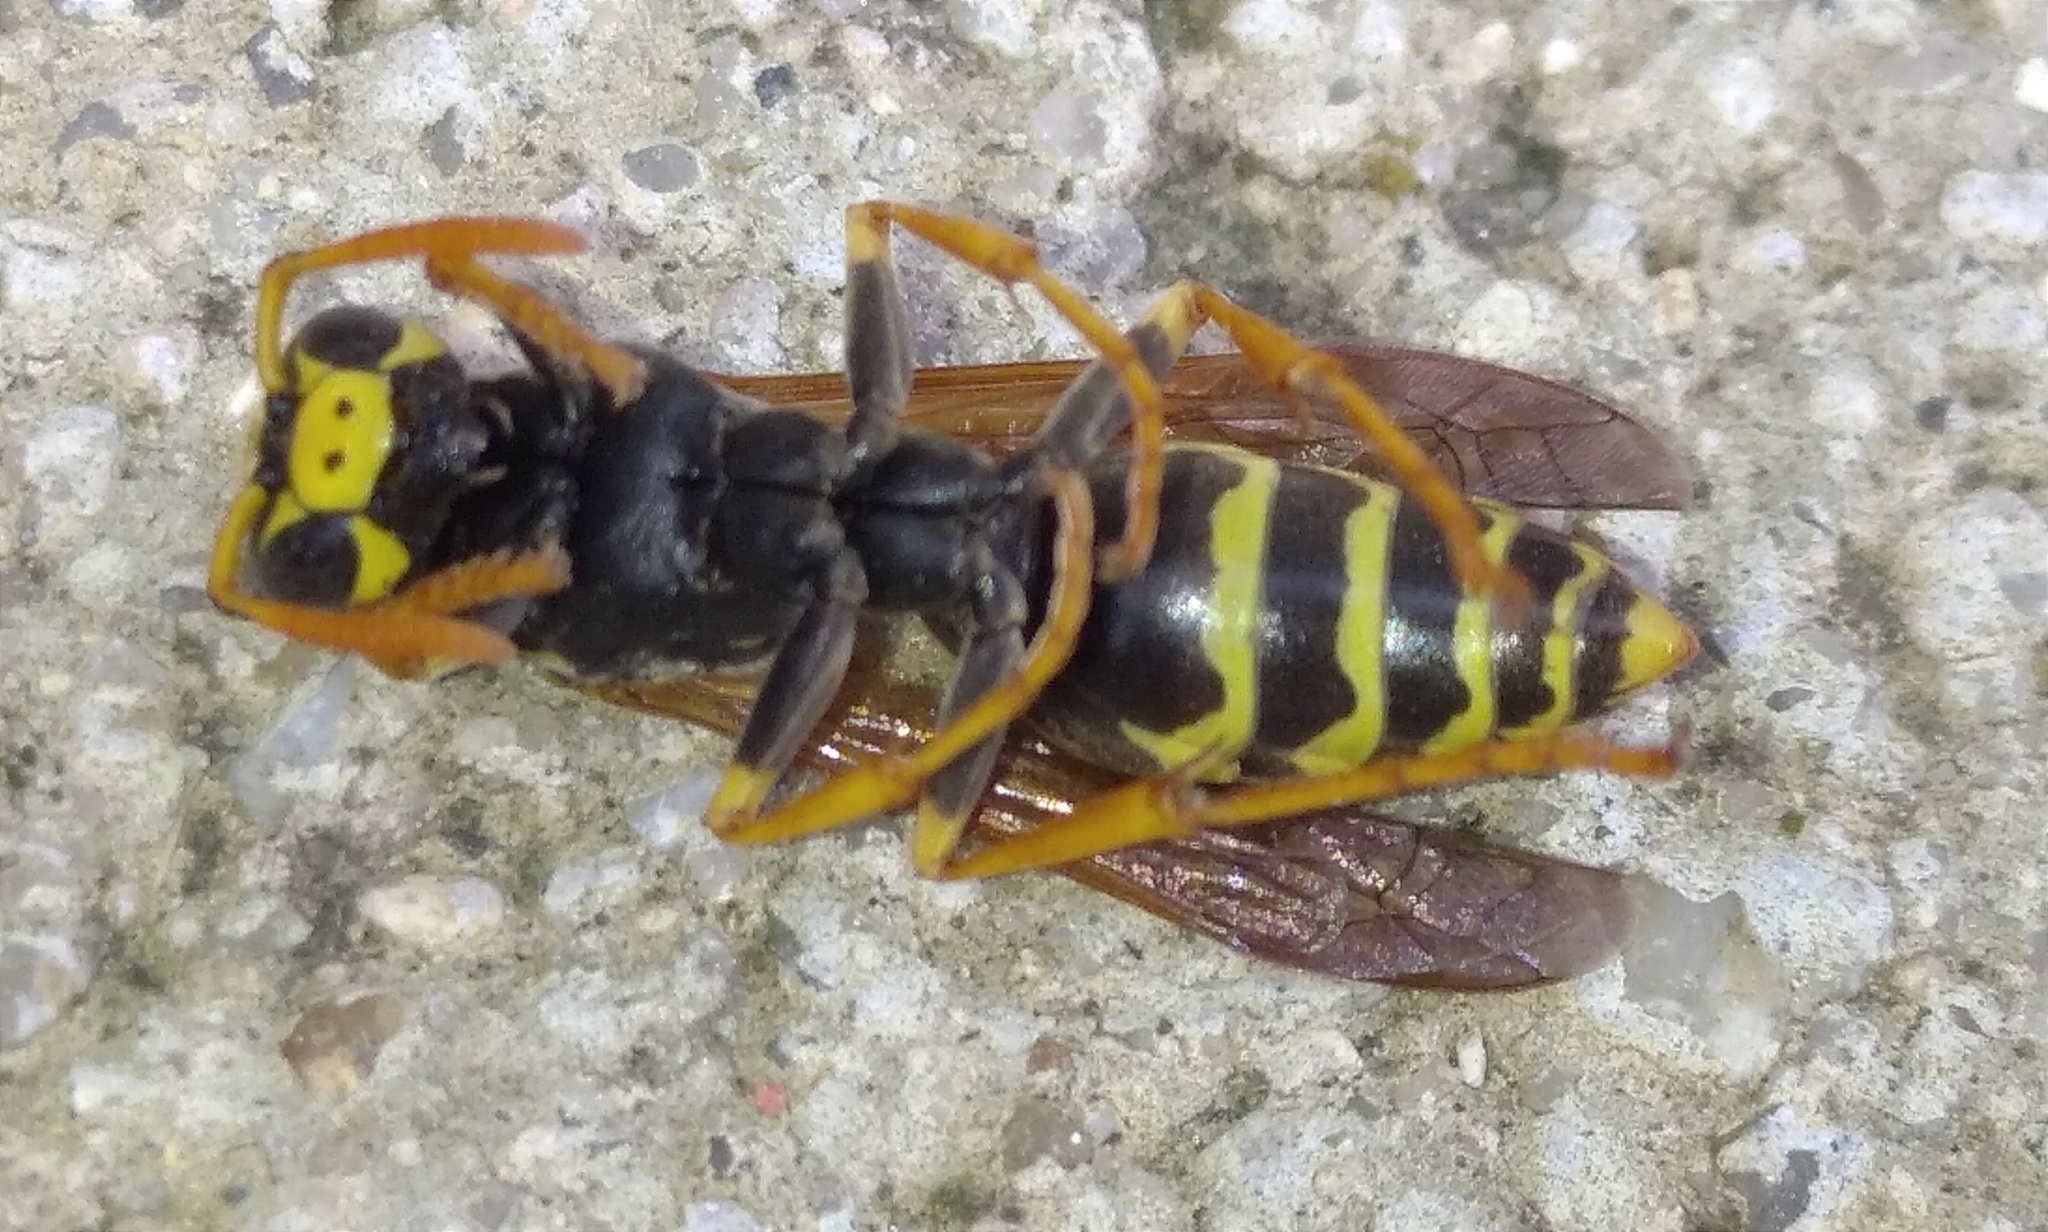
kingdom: Animalia
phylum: Arthropoda
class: Insecta
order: Hymenoptera
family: Eumenidae
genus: Polistes
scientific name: Polistes dominula
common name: Paper wasp
